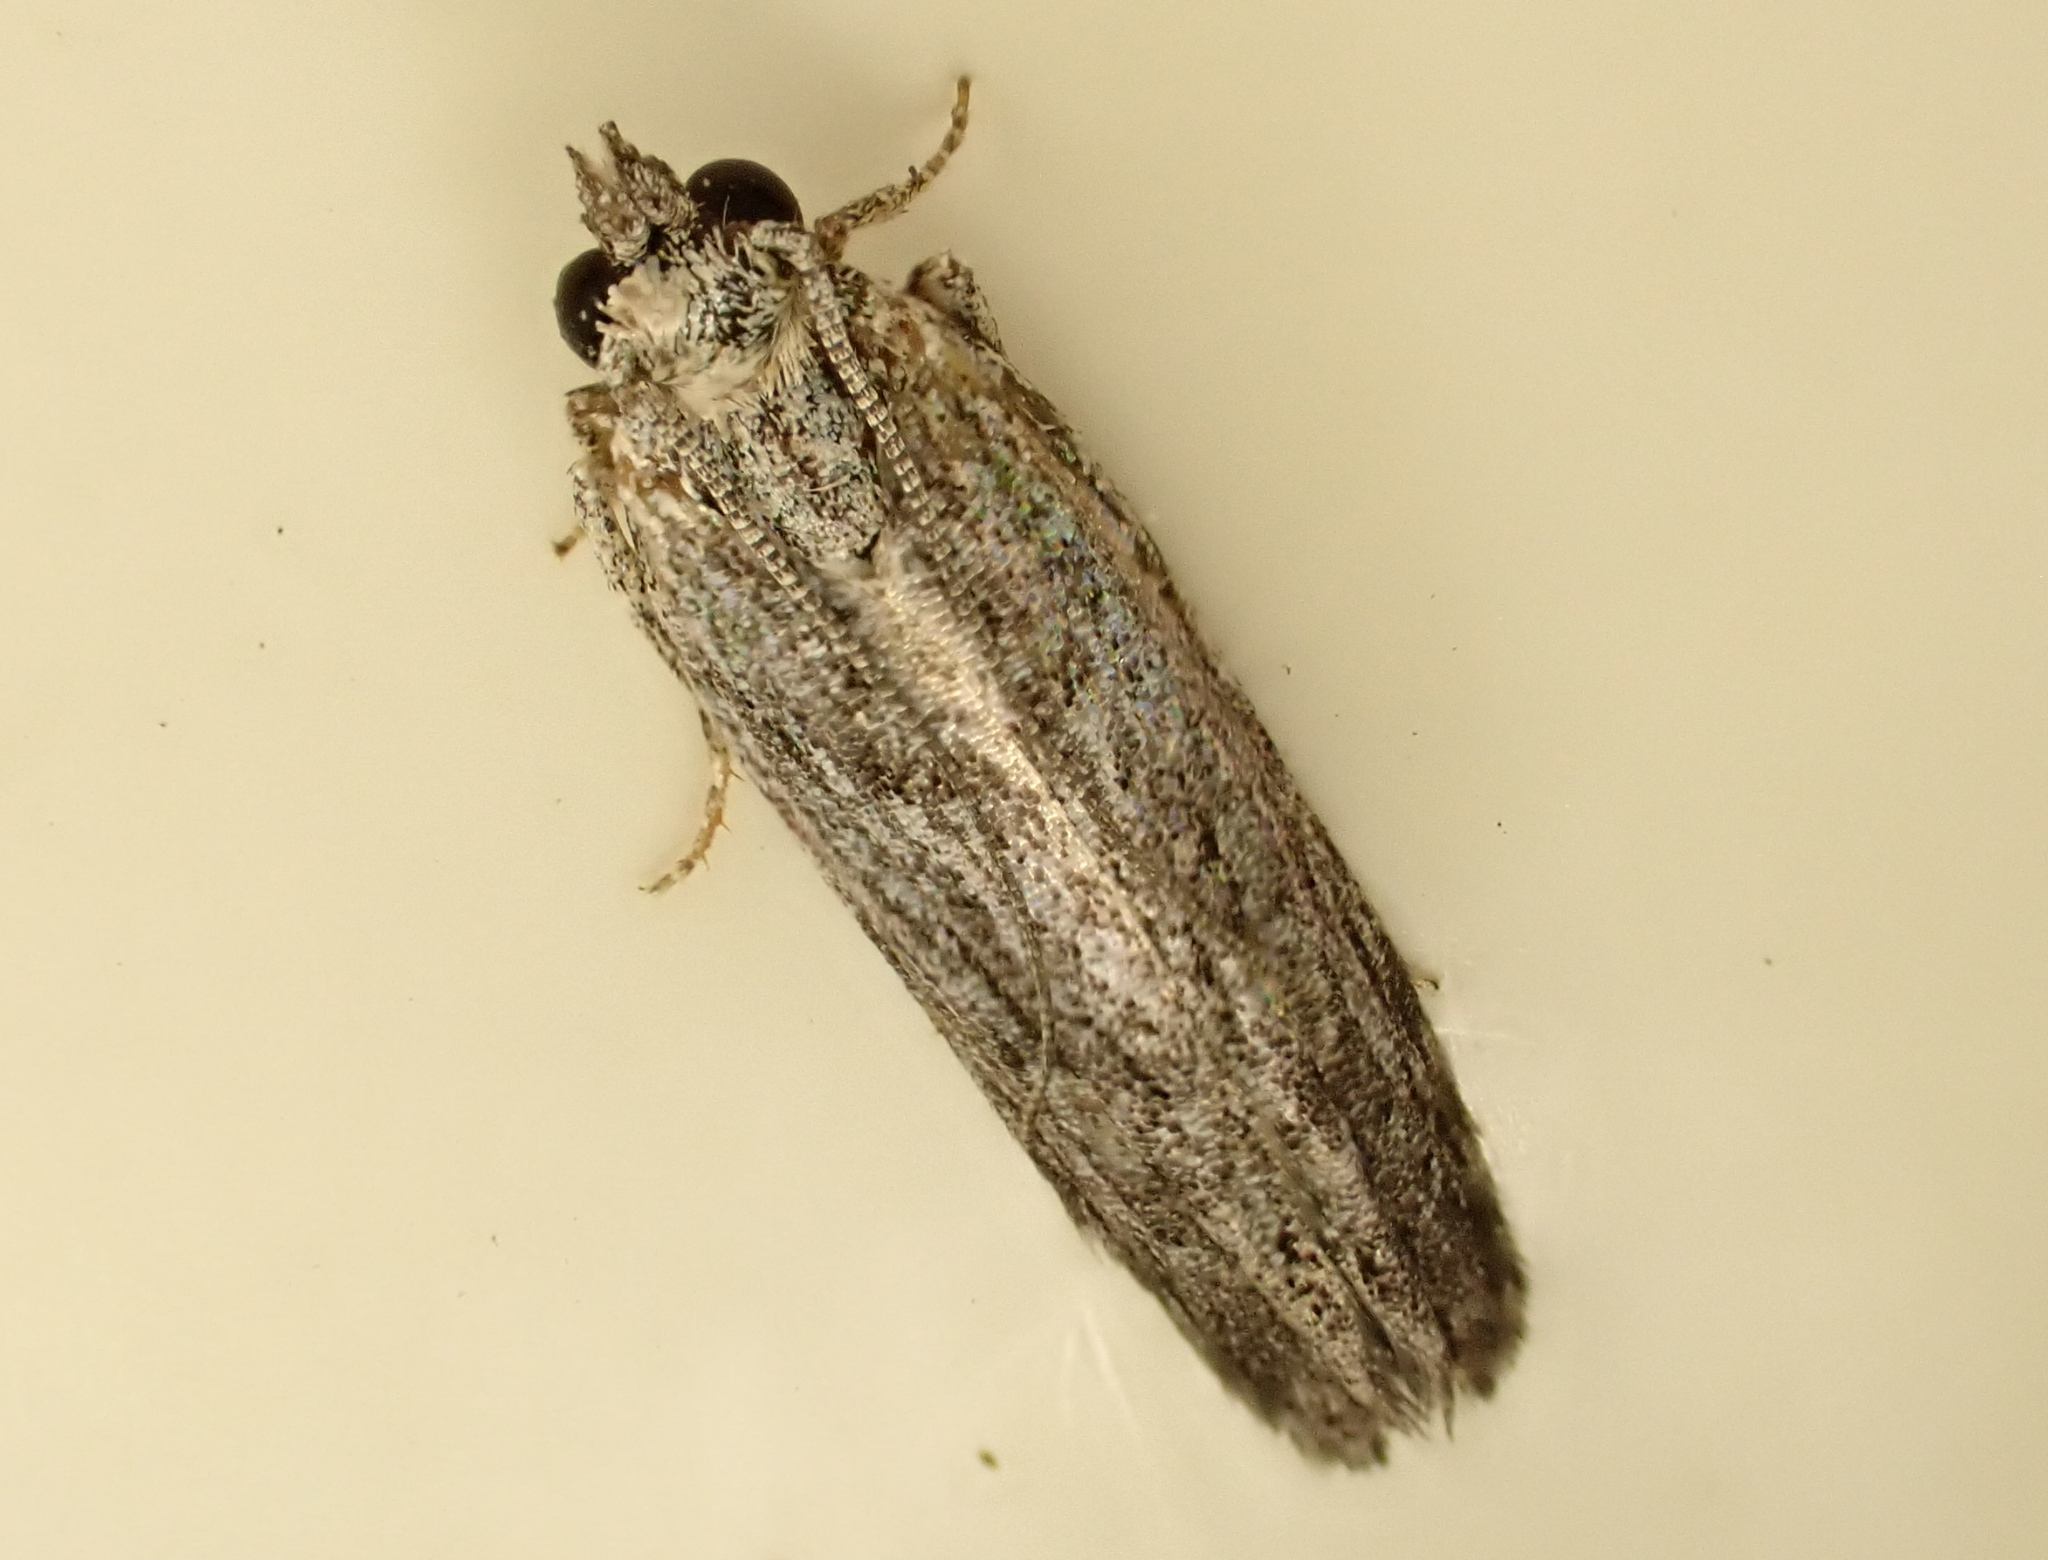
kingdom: Animalia
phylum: Arthropoda
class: Insecta
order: Lepidoptera
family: Gelechiidae
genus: Anarsia
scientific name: Anarsia dryinopa
